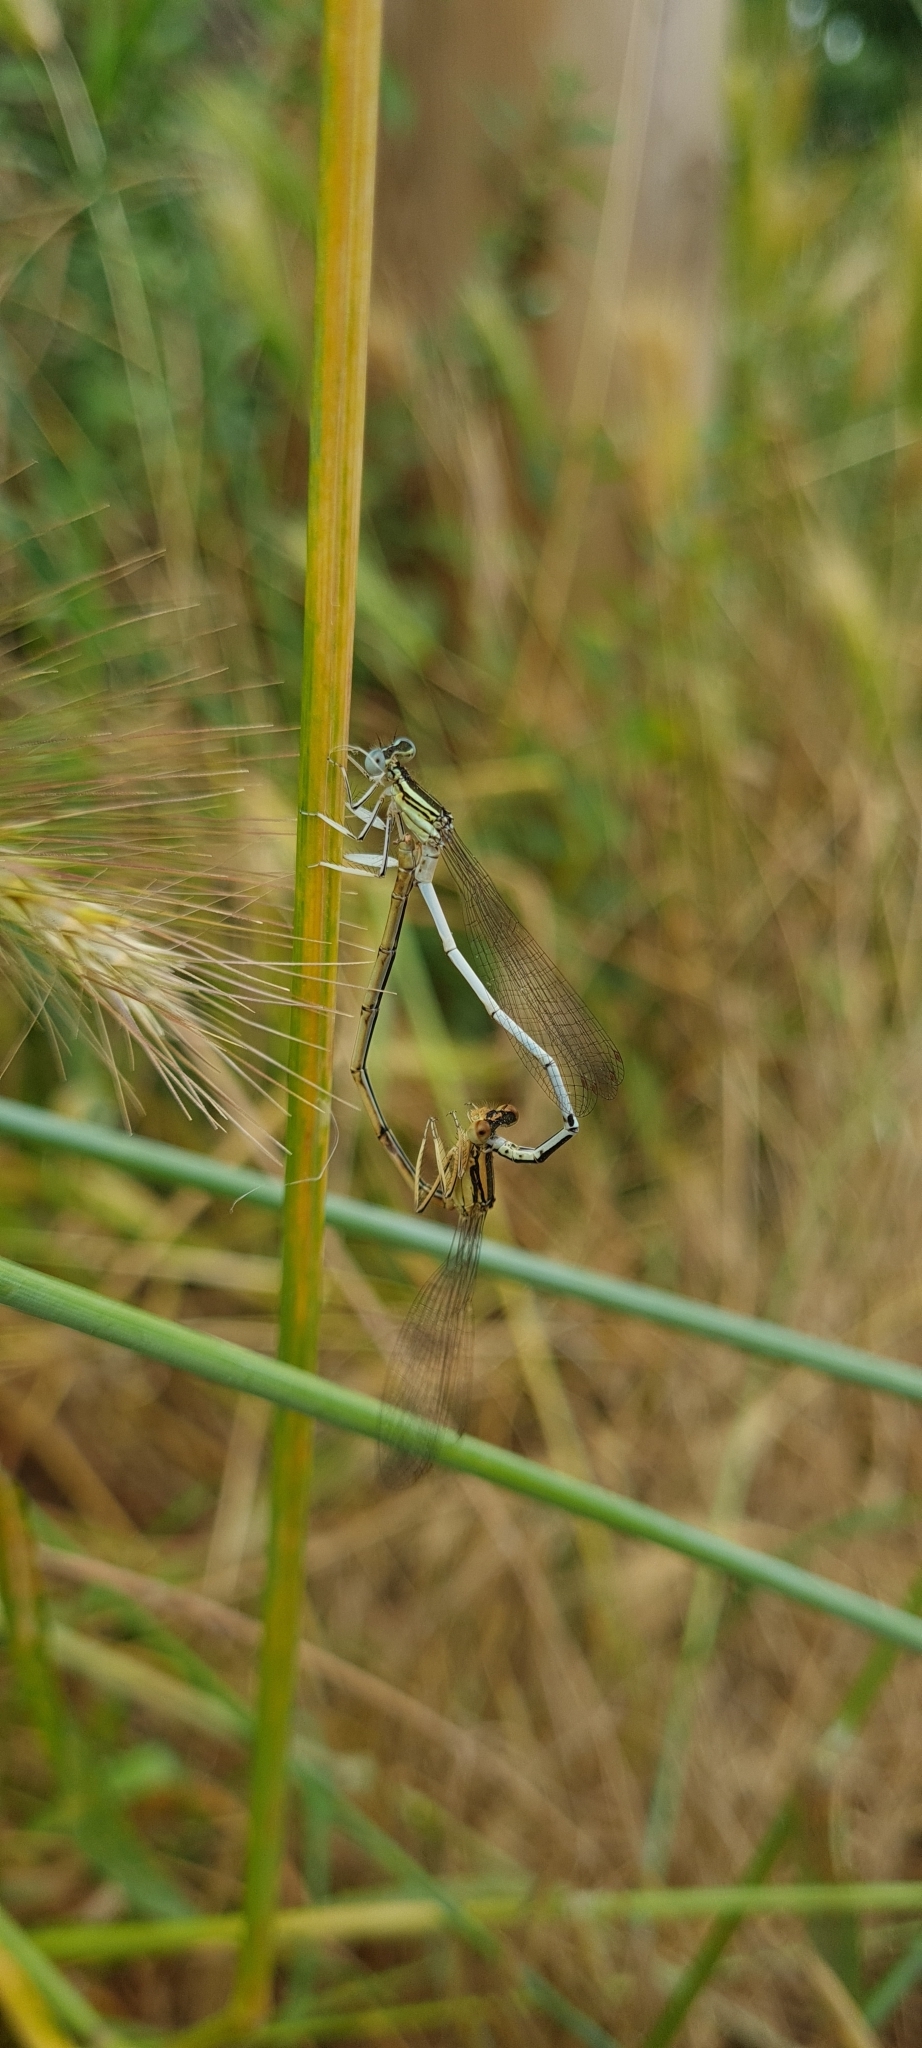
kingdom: Animalia
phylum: Arthropoda
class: Insecta
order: Odonata
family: Platycnemididae
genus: Platycnemis
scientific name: Platycnemis latipes
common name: White featherleg
